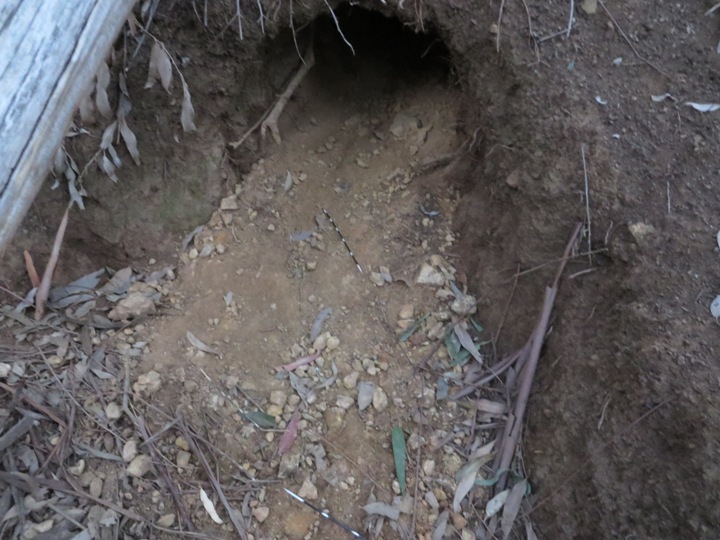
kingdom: Animalia
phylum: Chordata
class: Mammalia
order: Rodentia
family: Hystricidae
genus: Hystrix
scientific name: Hystrix africaeaustralis
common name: Cape porcupine
